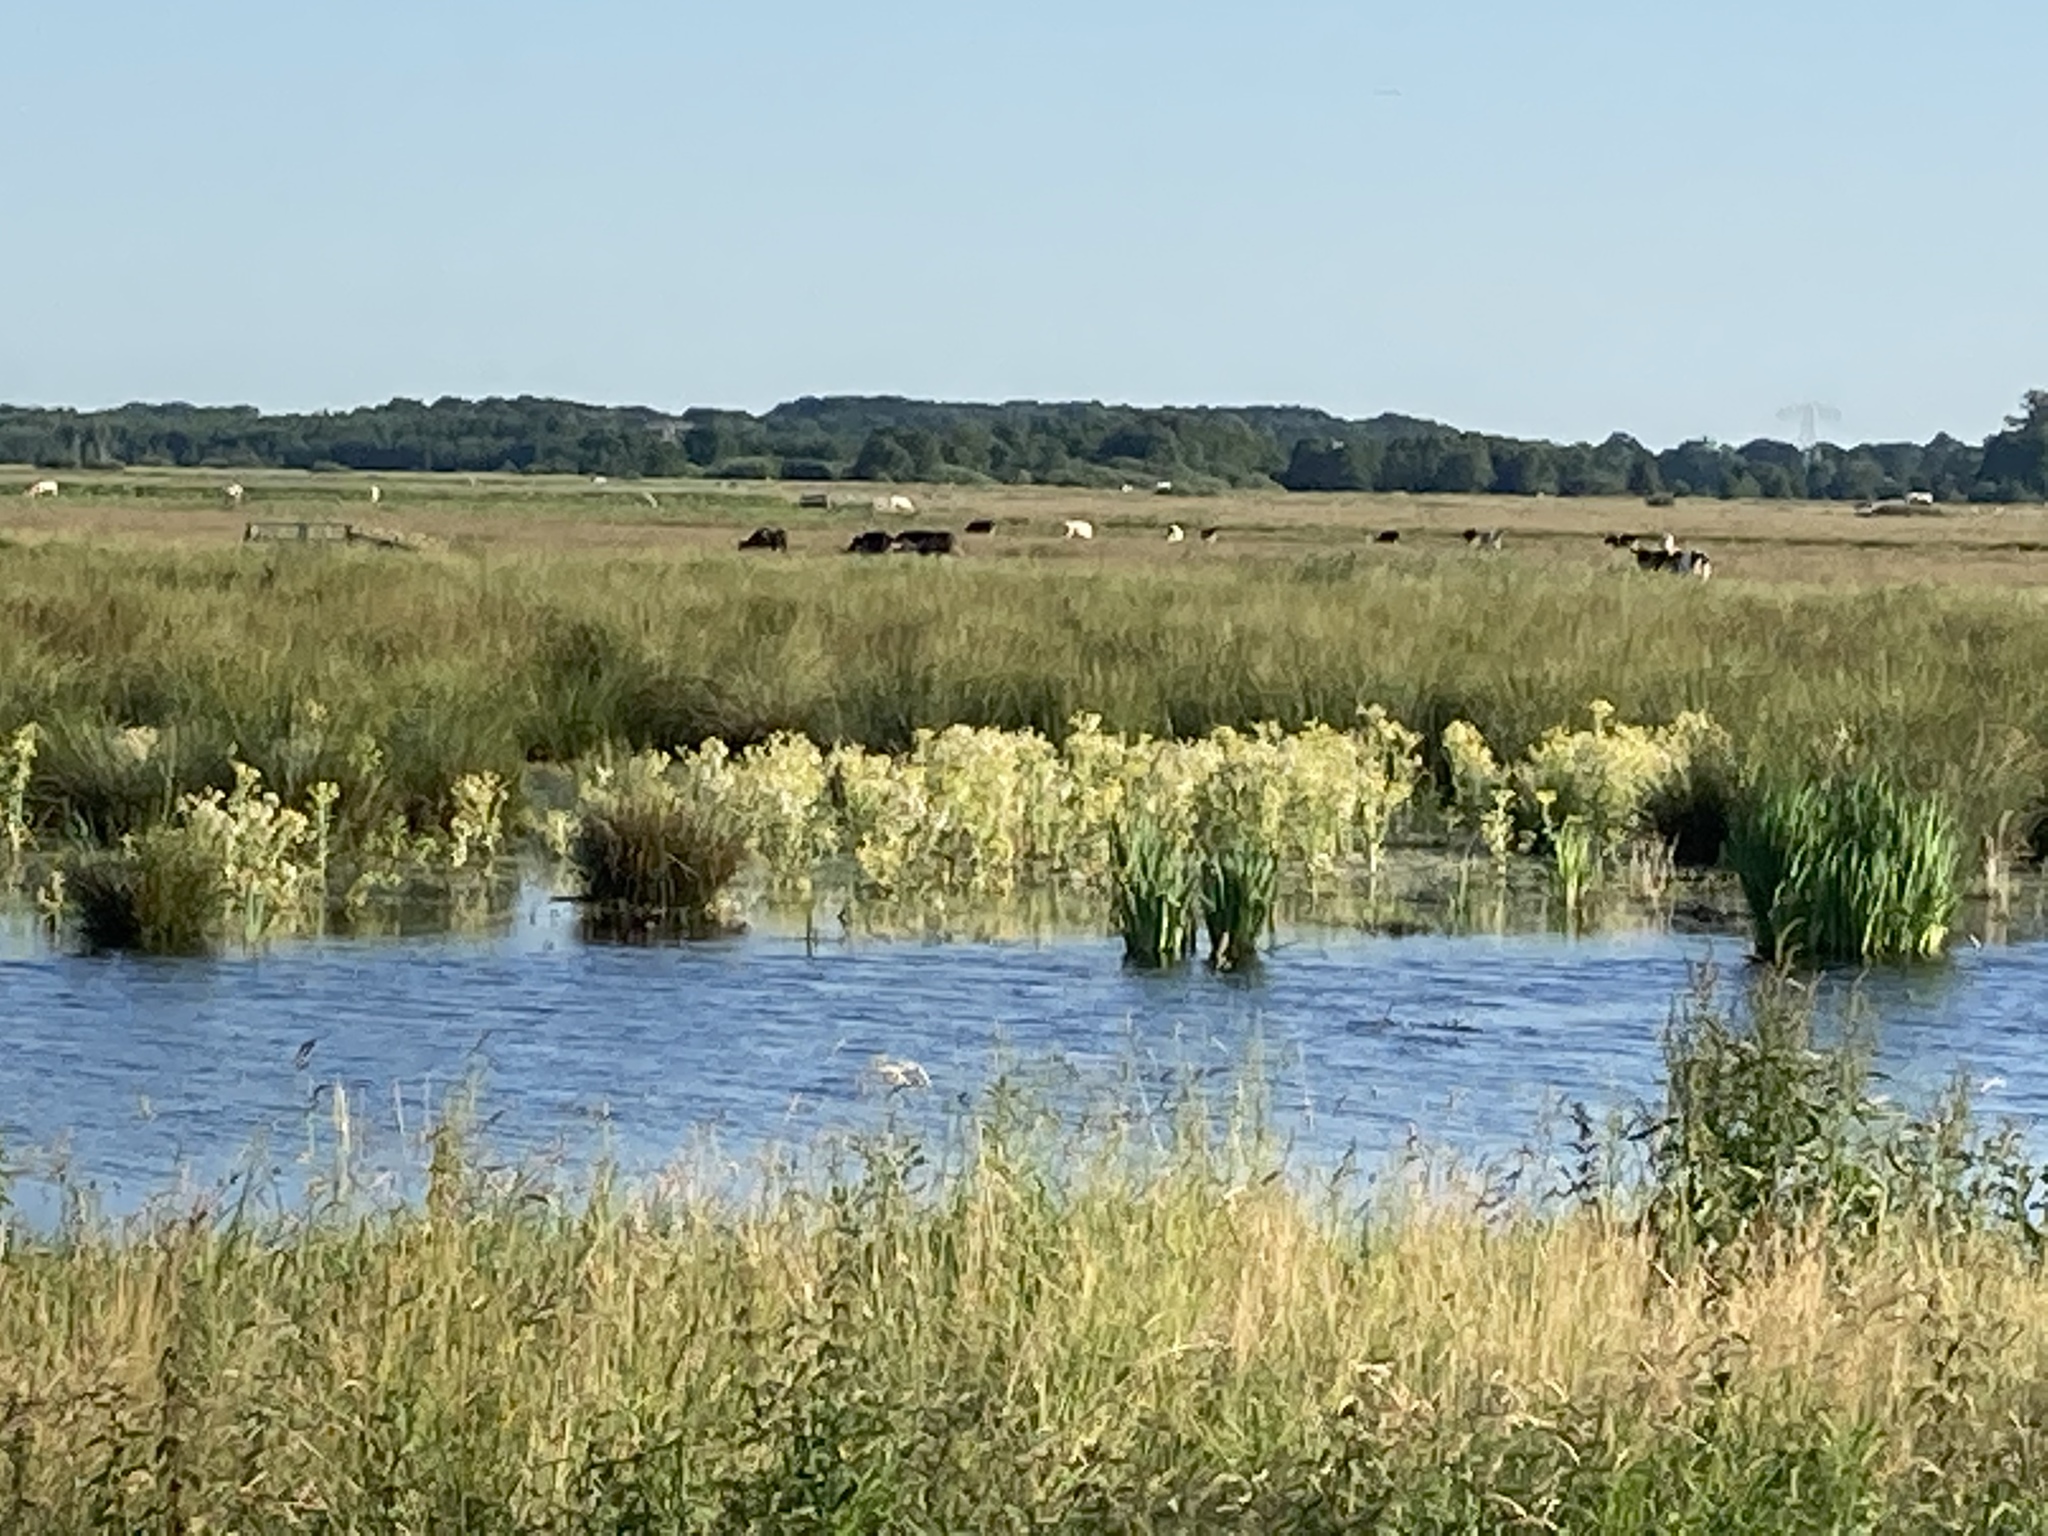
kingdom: Plantae
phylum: Tracheophyta
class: Magnoliopsida
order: Asterales
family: Asteraceae
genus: Tephroseris
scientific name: Tephroseris palustris
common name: Marsh fleawort
